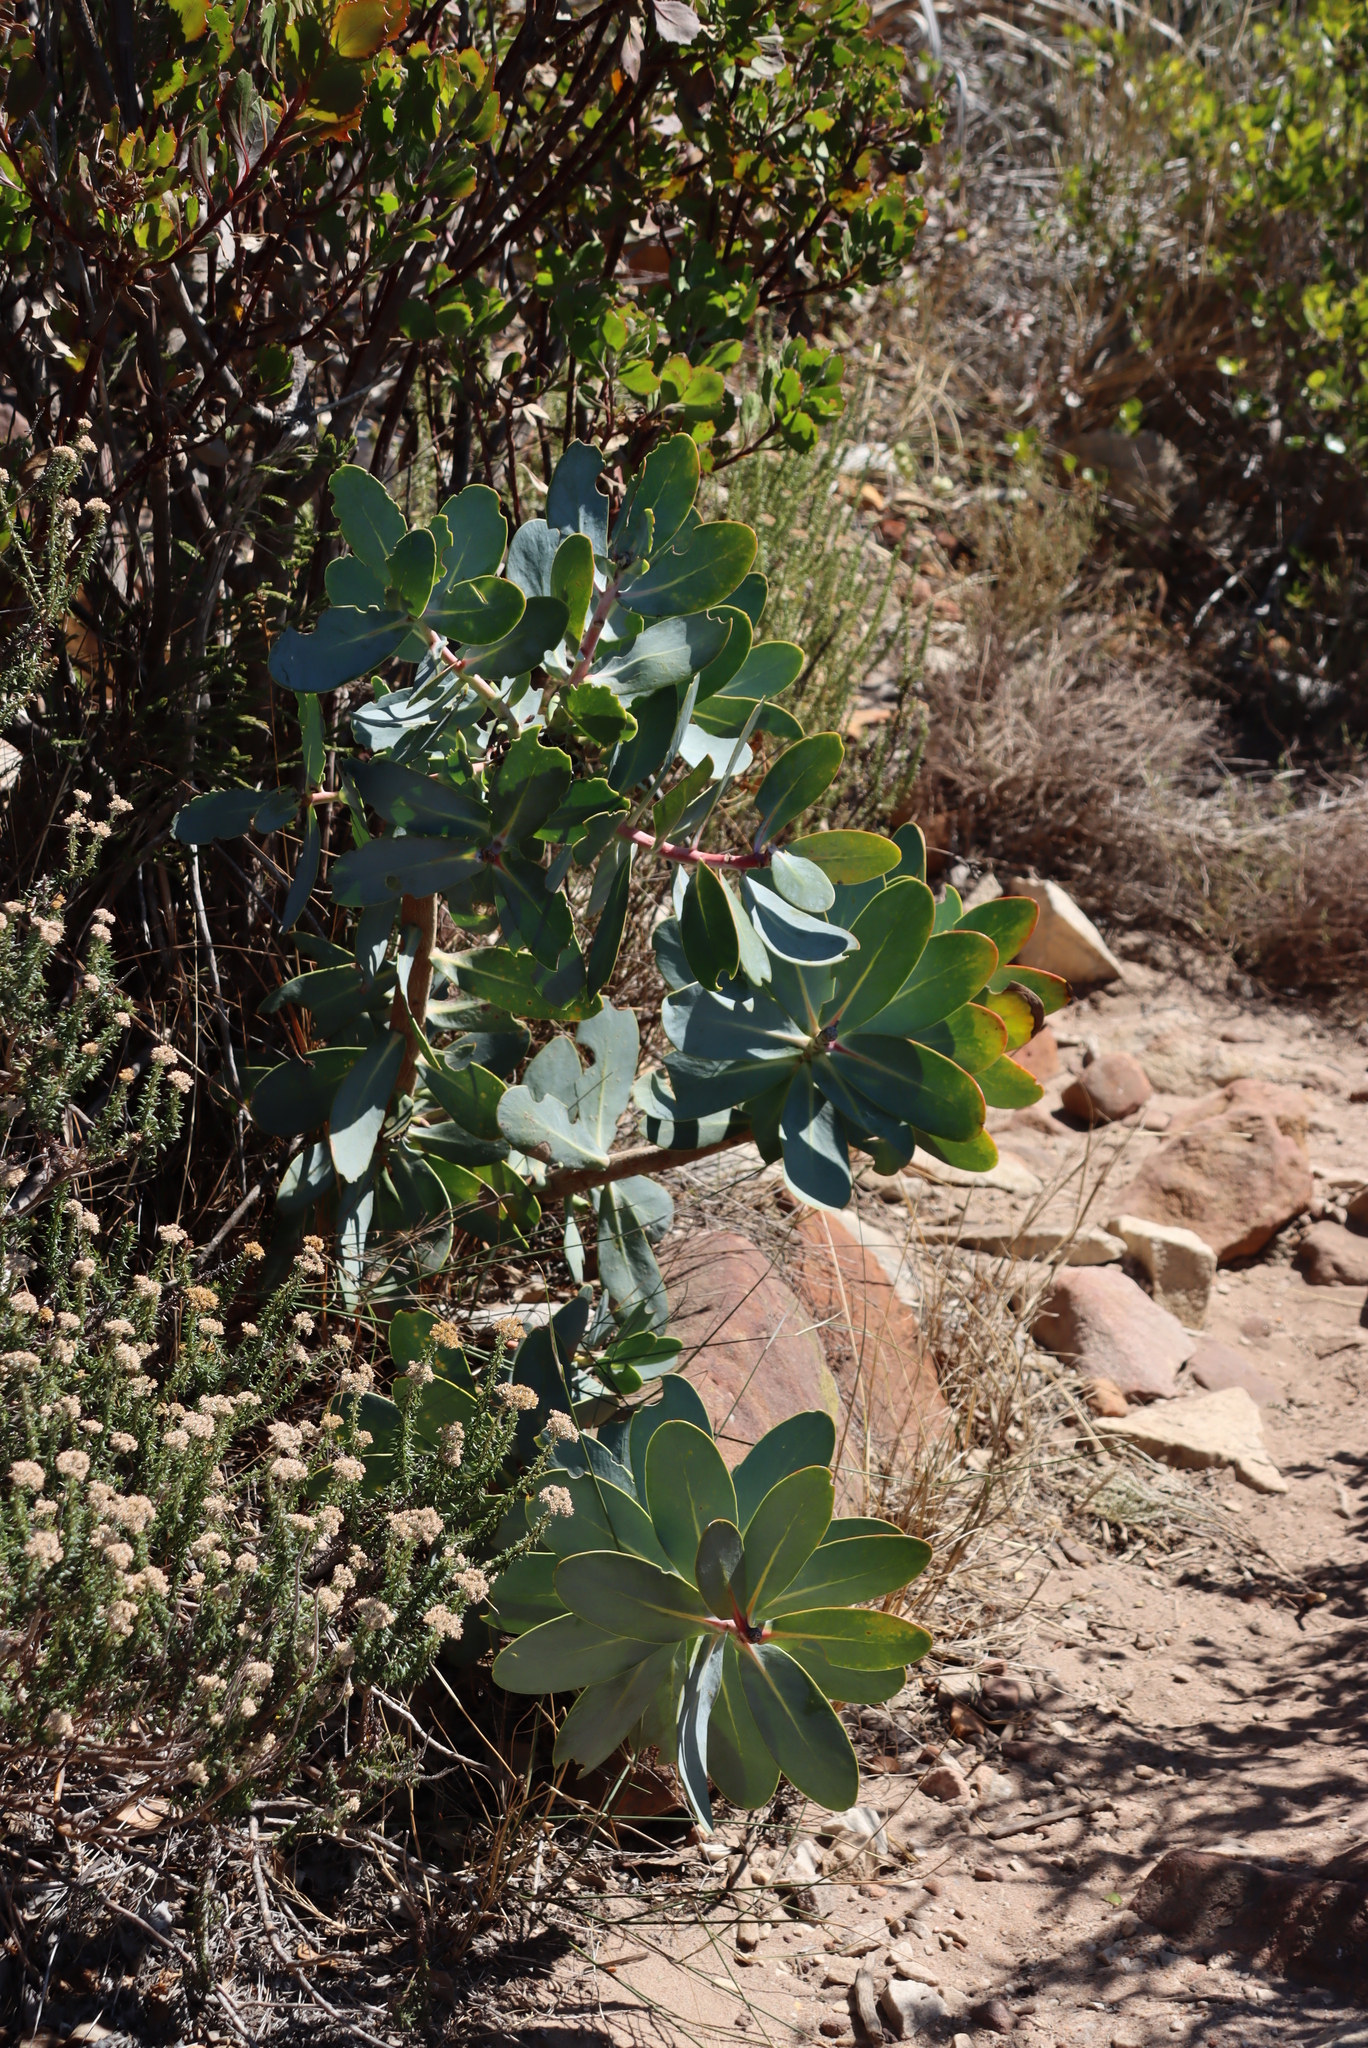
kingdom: Plantae
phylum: Tracheophyta
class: Magnoliopsida
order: Proteales
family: Proteaceae
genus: Protea
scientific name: Protea nitida
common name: Tree protea
